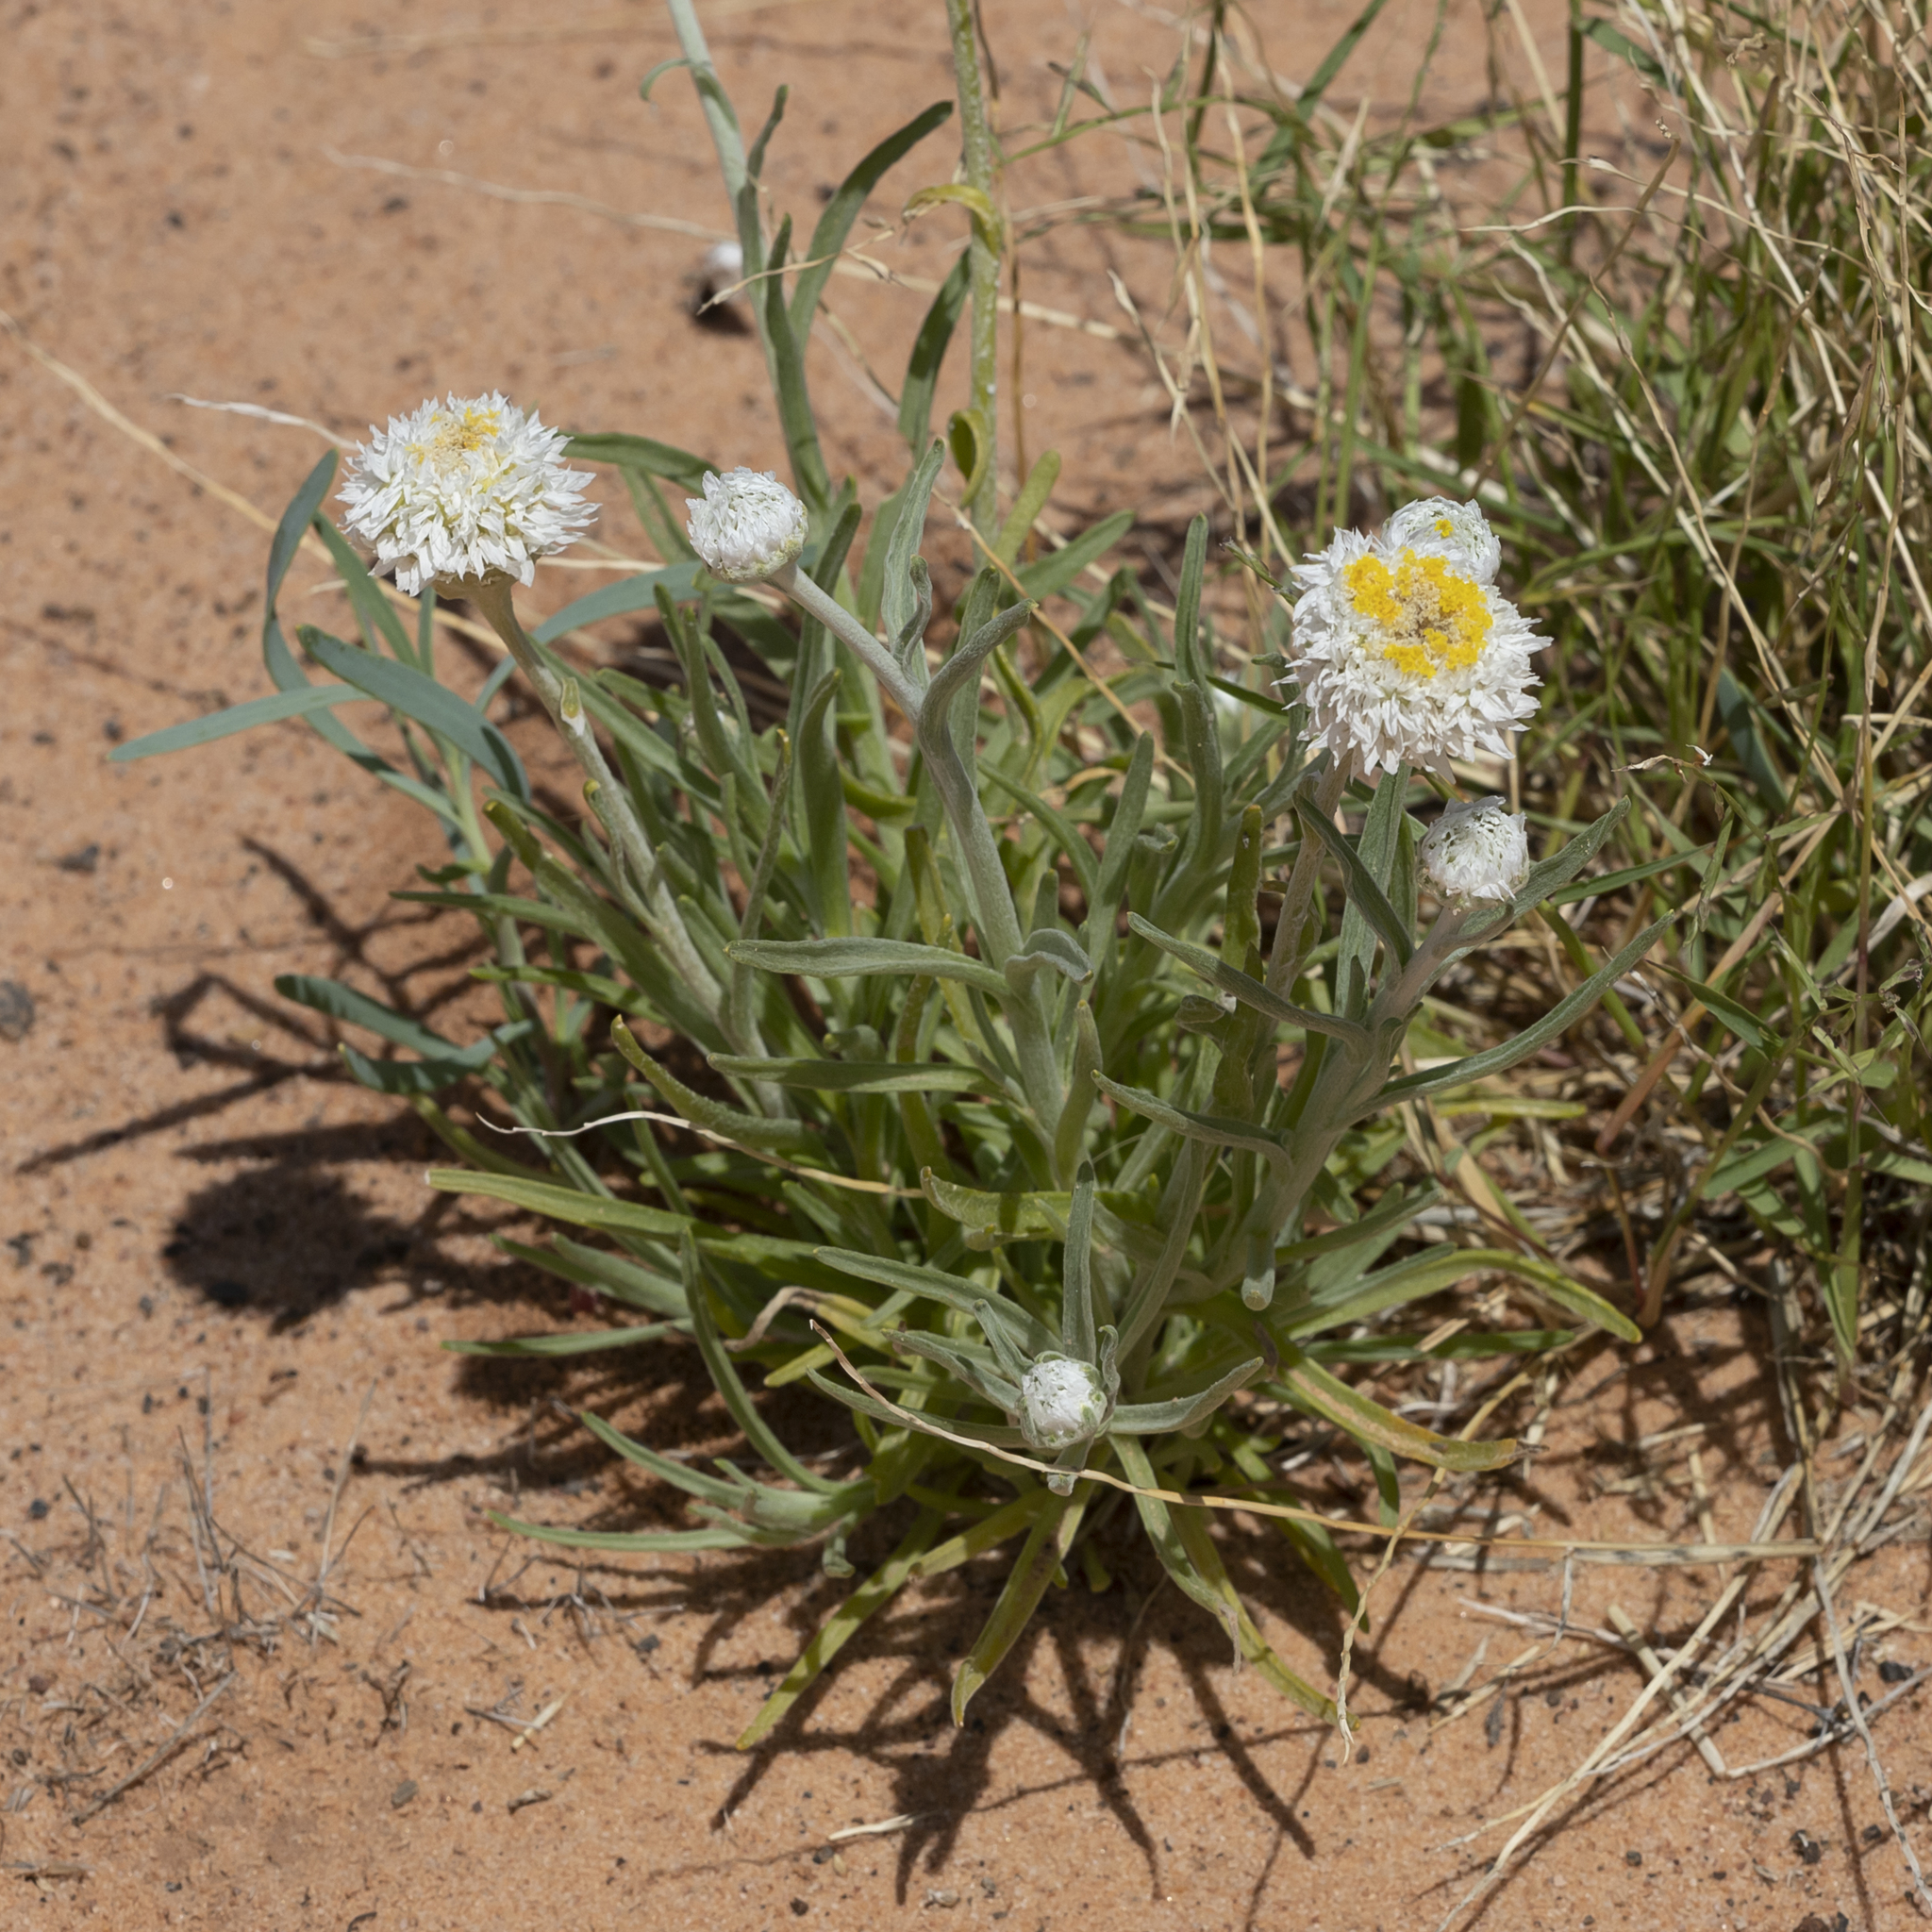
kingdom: Plantae
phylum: Tracheophyta
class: Magnoliopsida
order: Asterales
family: Asteraceae
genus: Polycalymma
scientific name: Polycalymma stuartii
